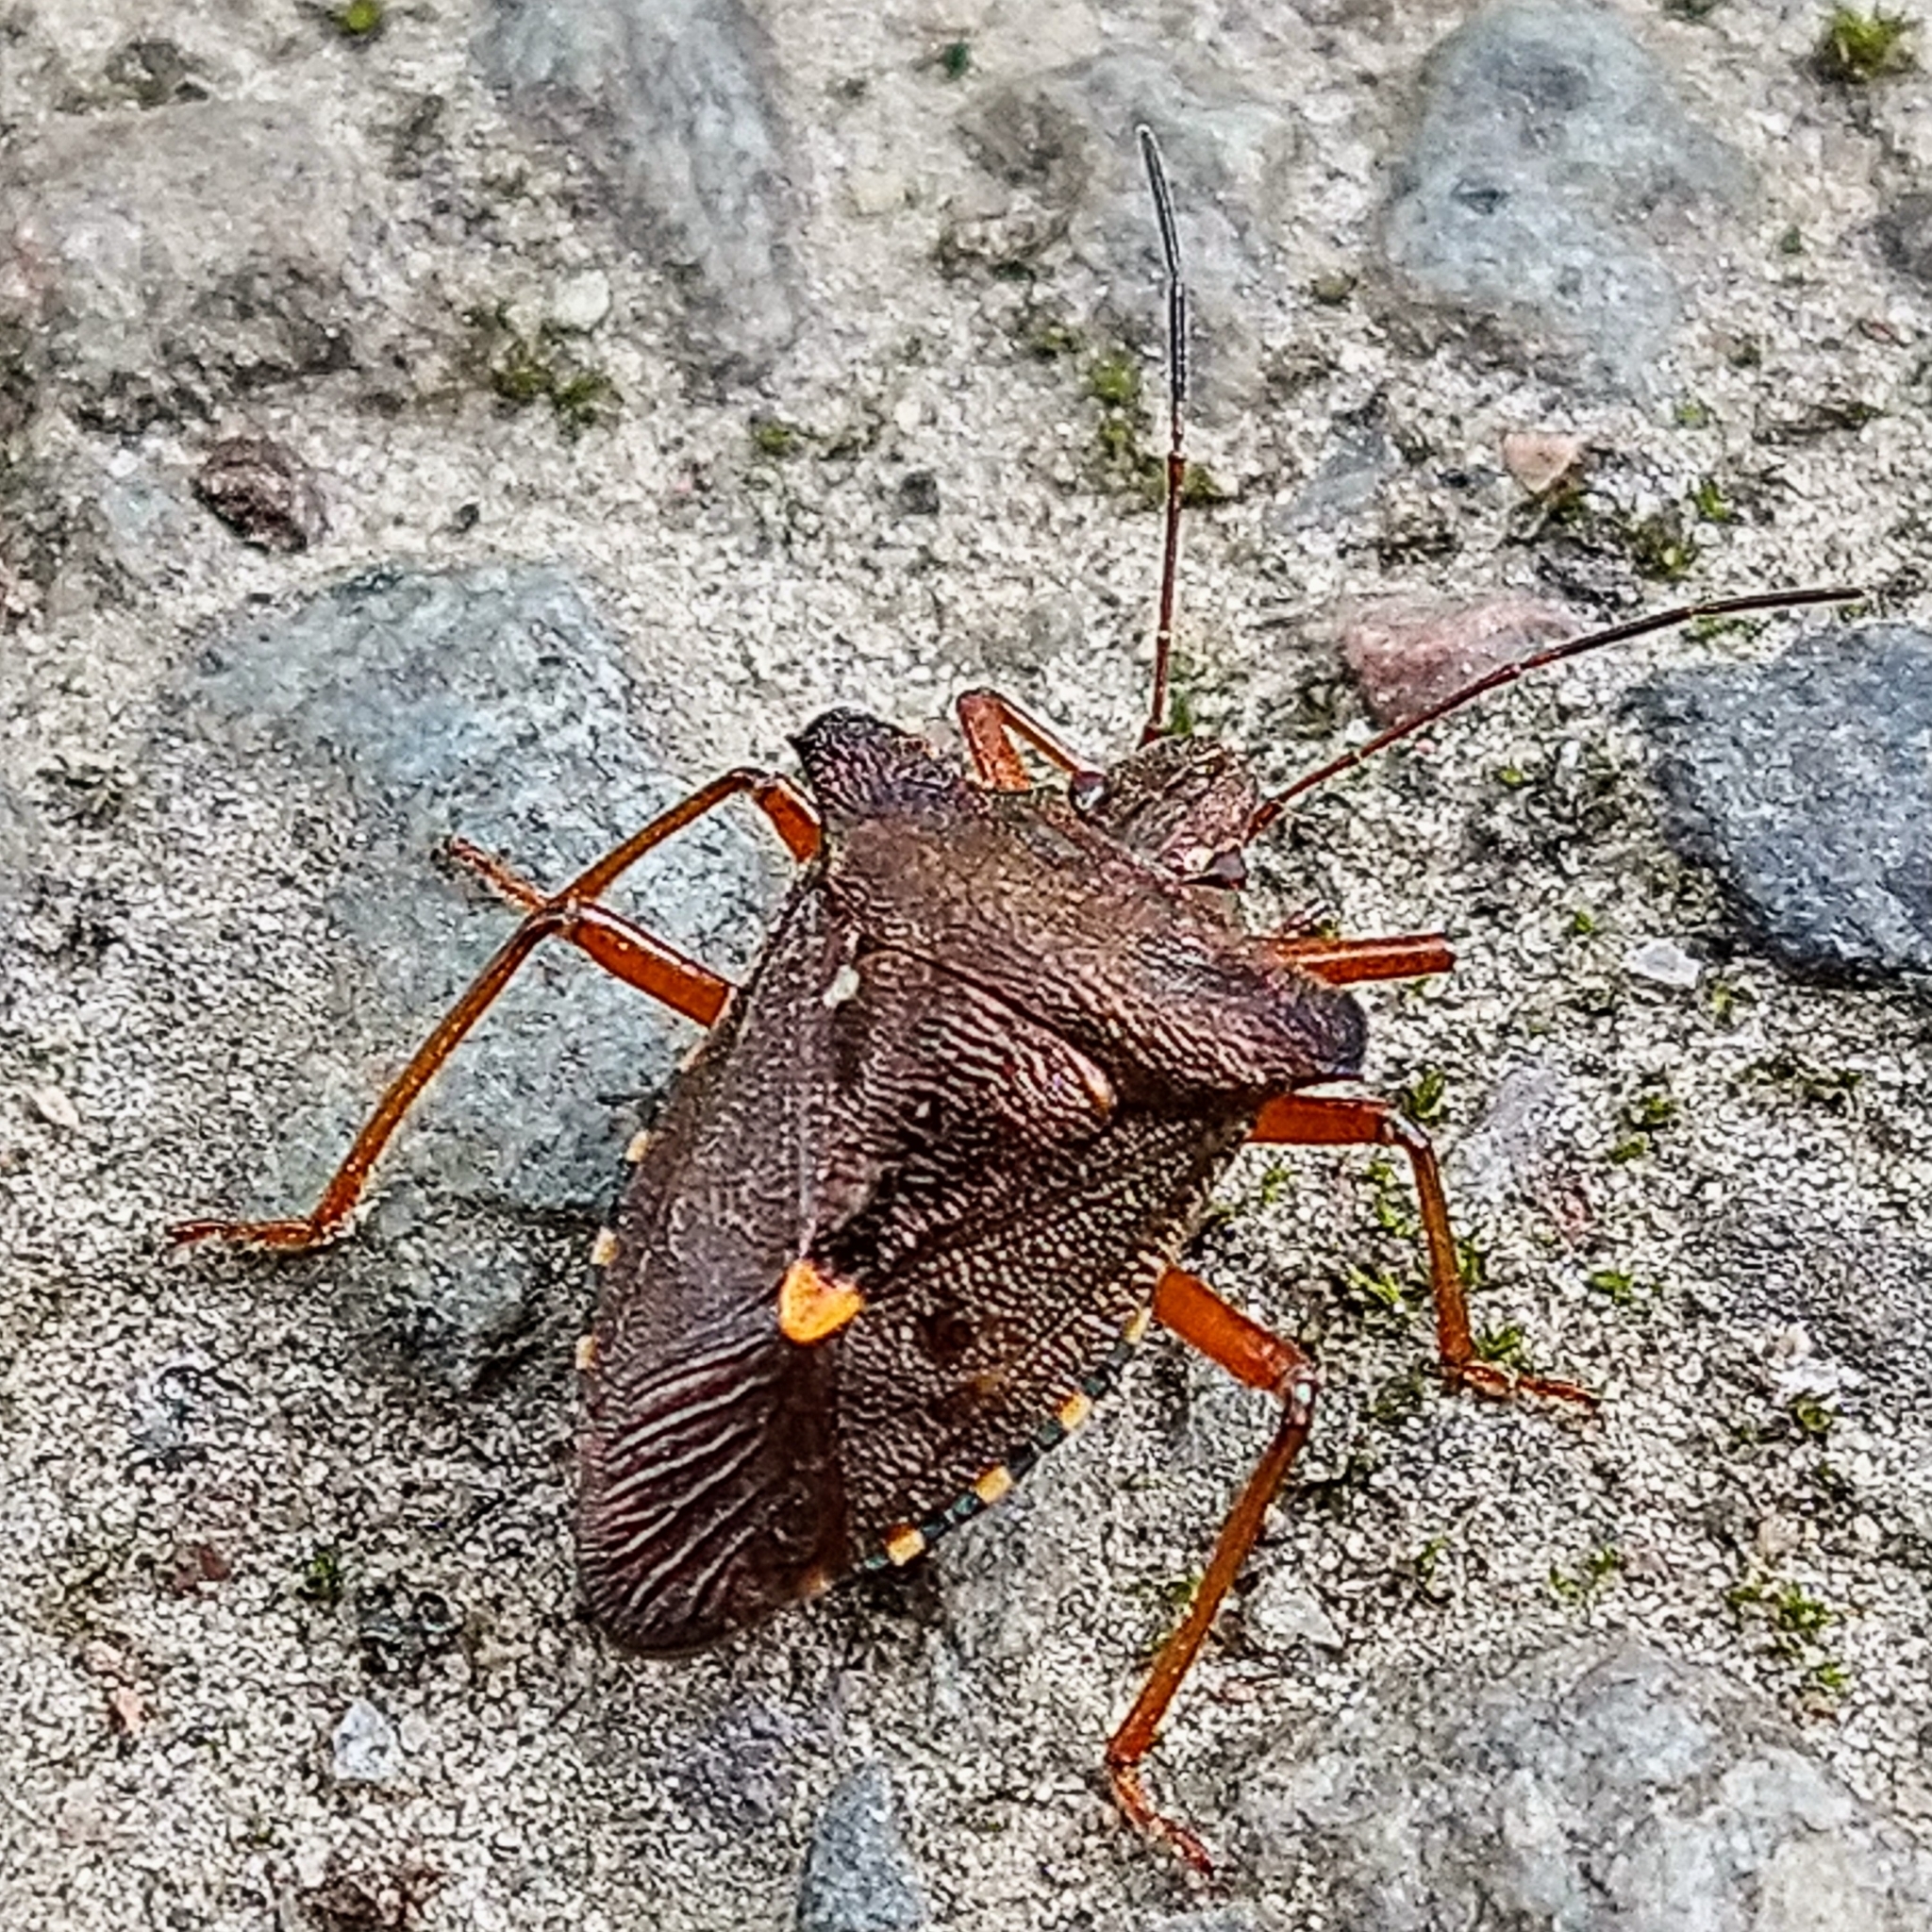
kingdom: Animalia
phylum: Arthropoda
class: Insecta
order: Hemiptera
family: Pentatomidae
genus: Pentatoma
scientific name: Pentatoma rufipes
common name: Forest bug
